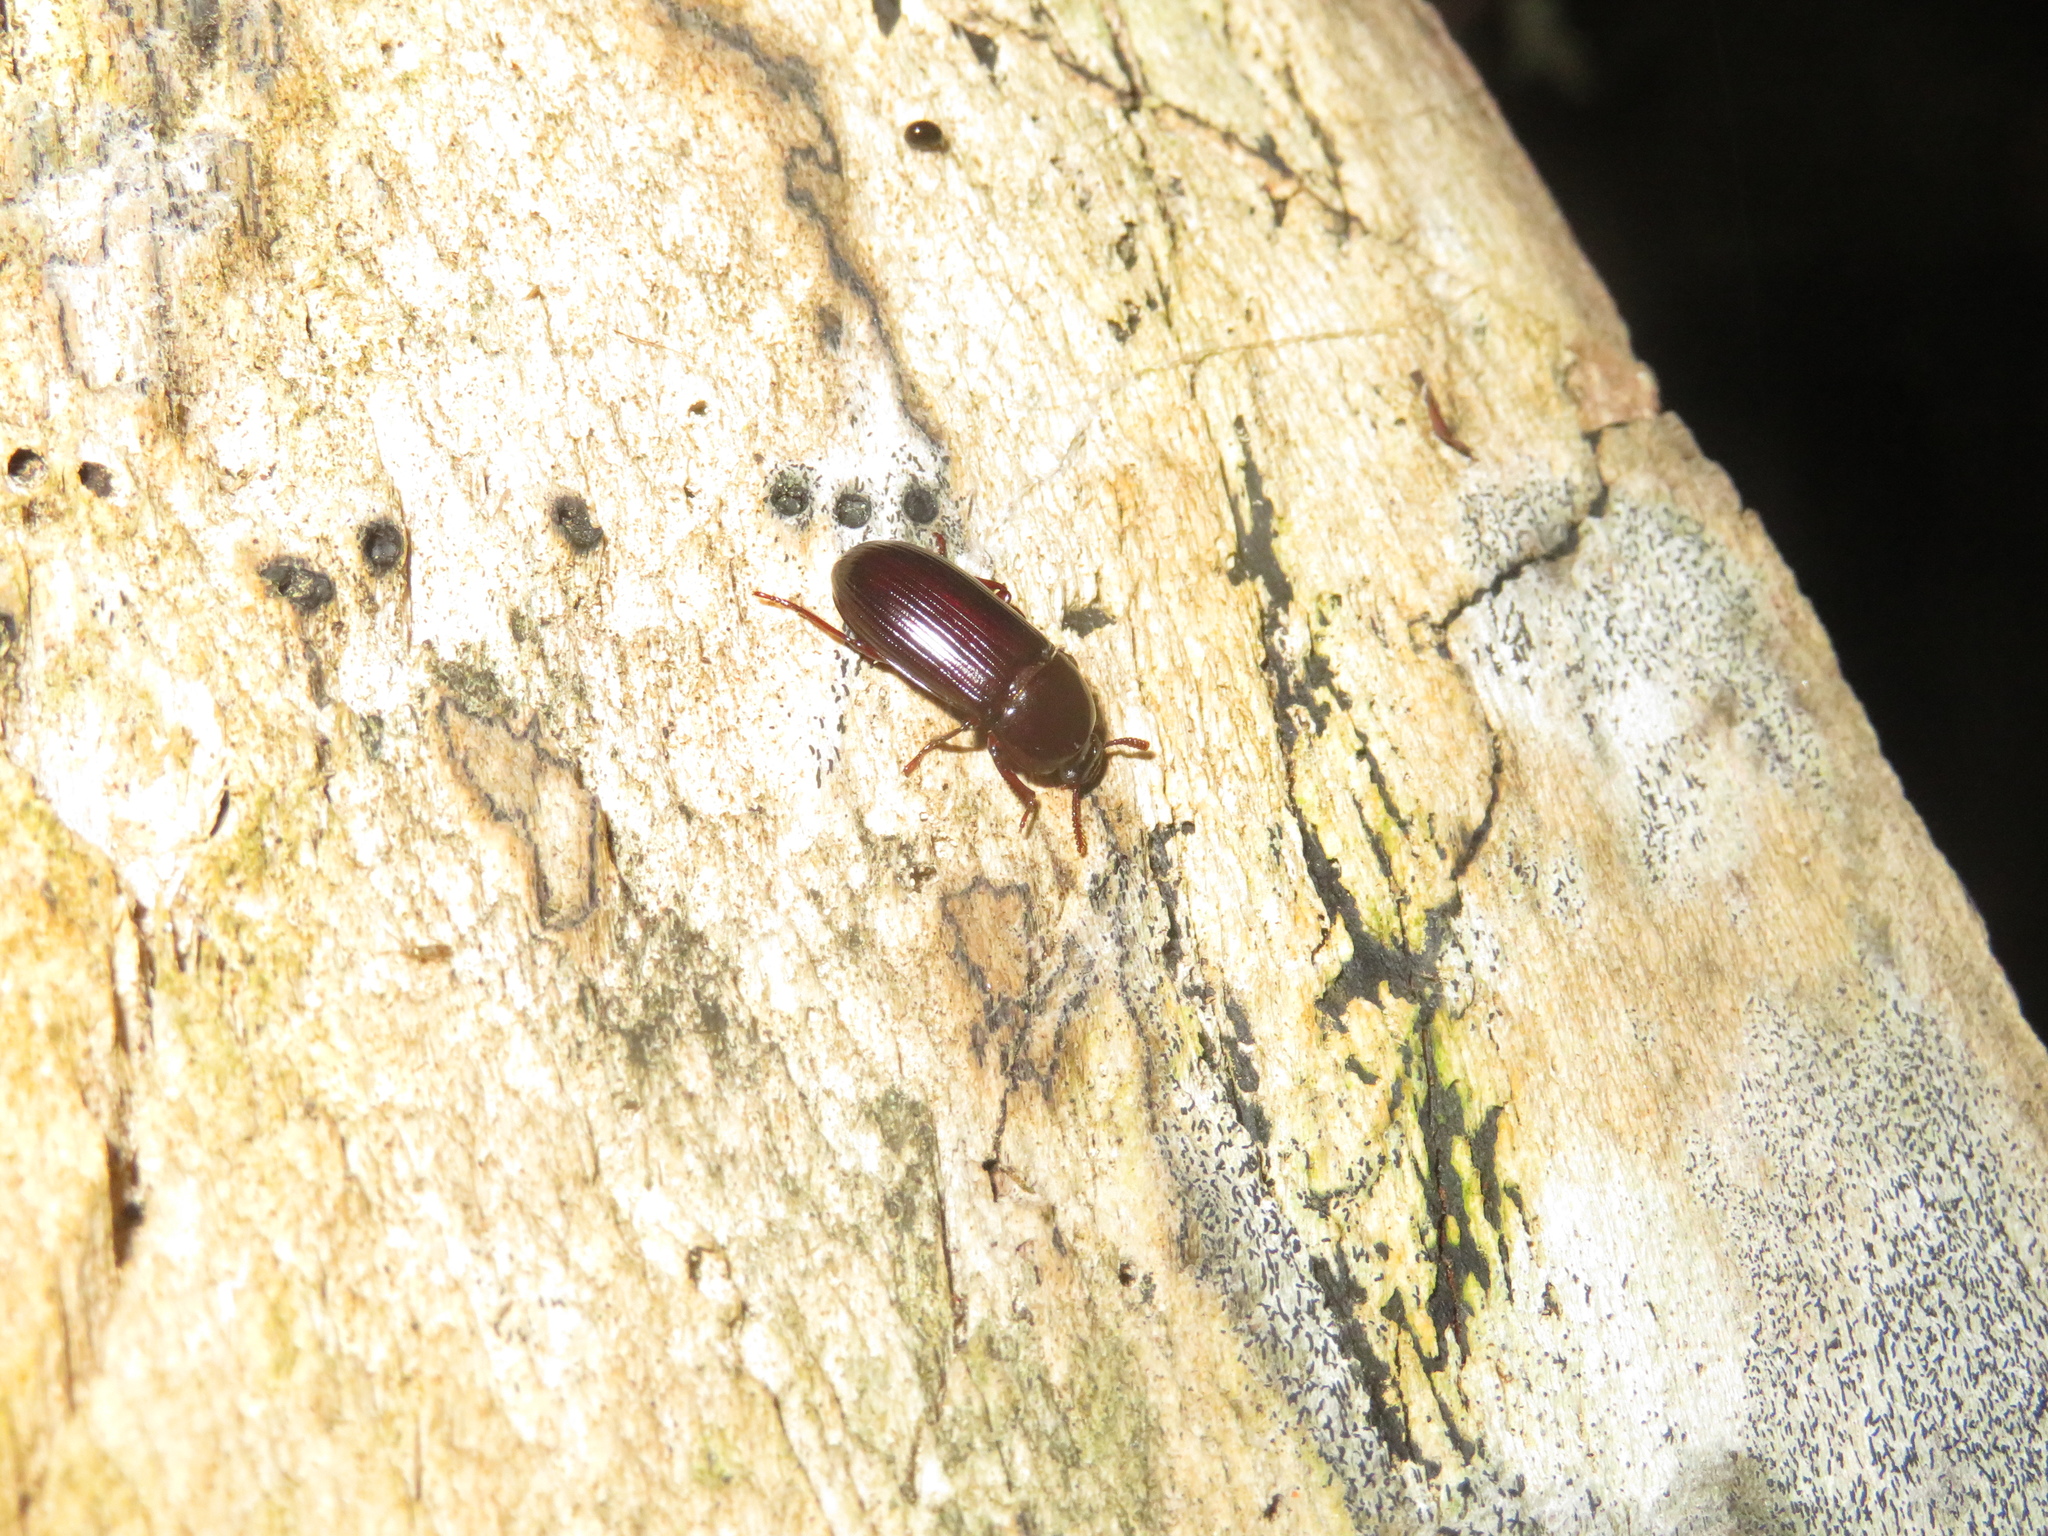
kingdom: Animalia
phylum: Arthropoda
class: Insecta
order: Coleoptera
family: Tenebrionidae
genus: Uloma
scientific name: Uloma tenebrionoides
